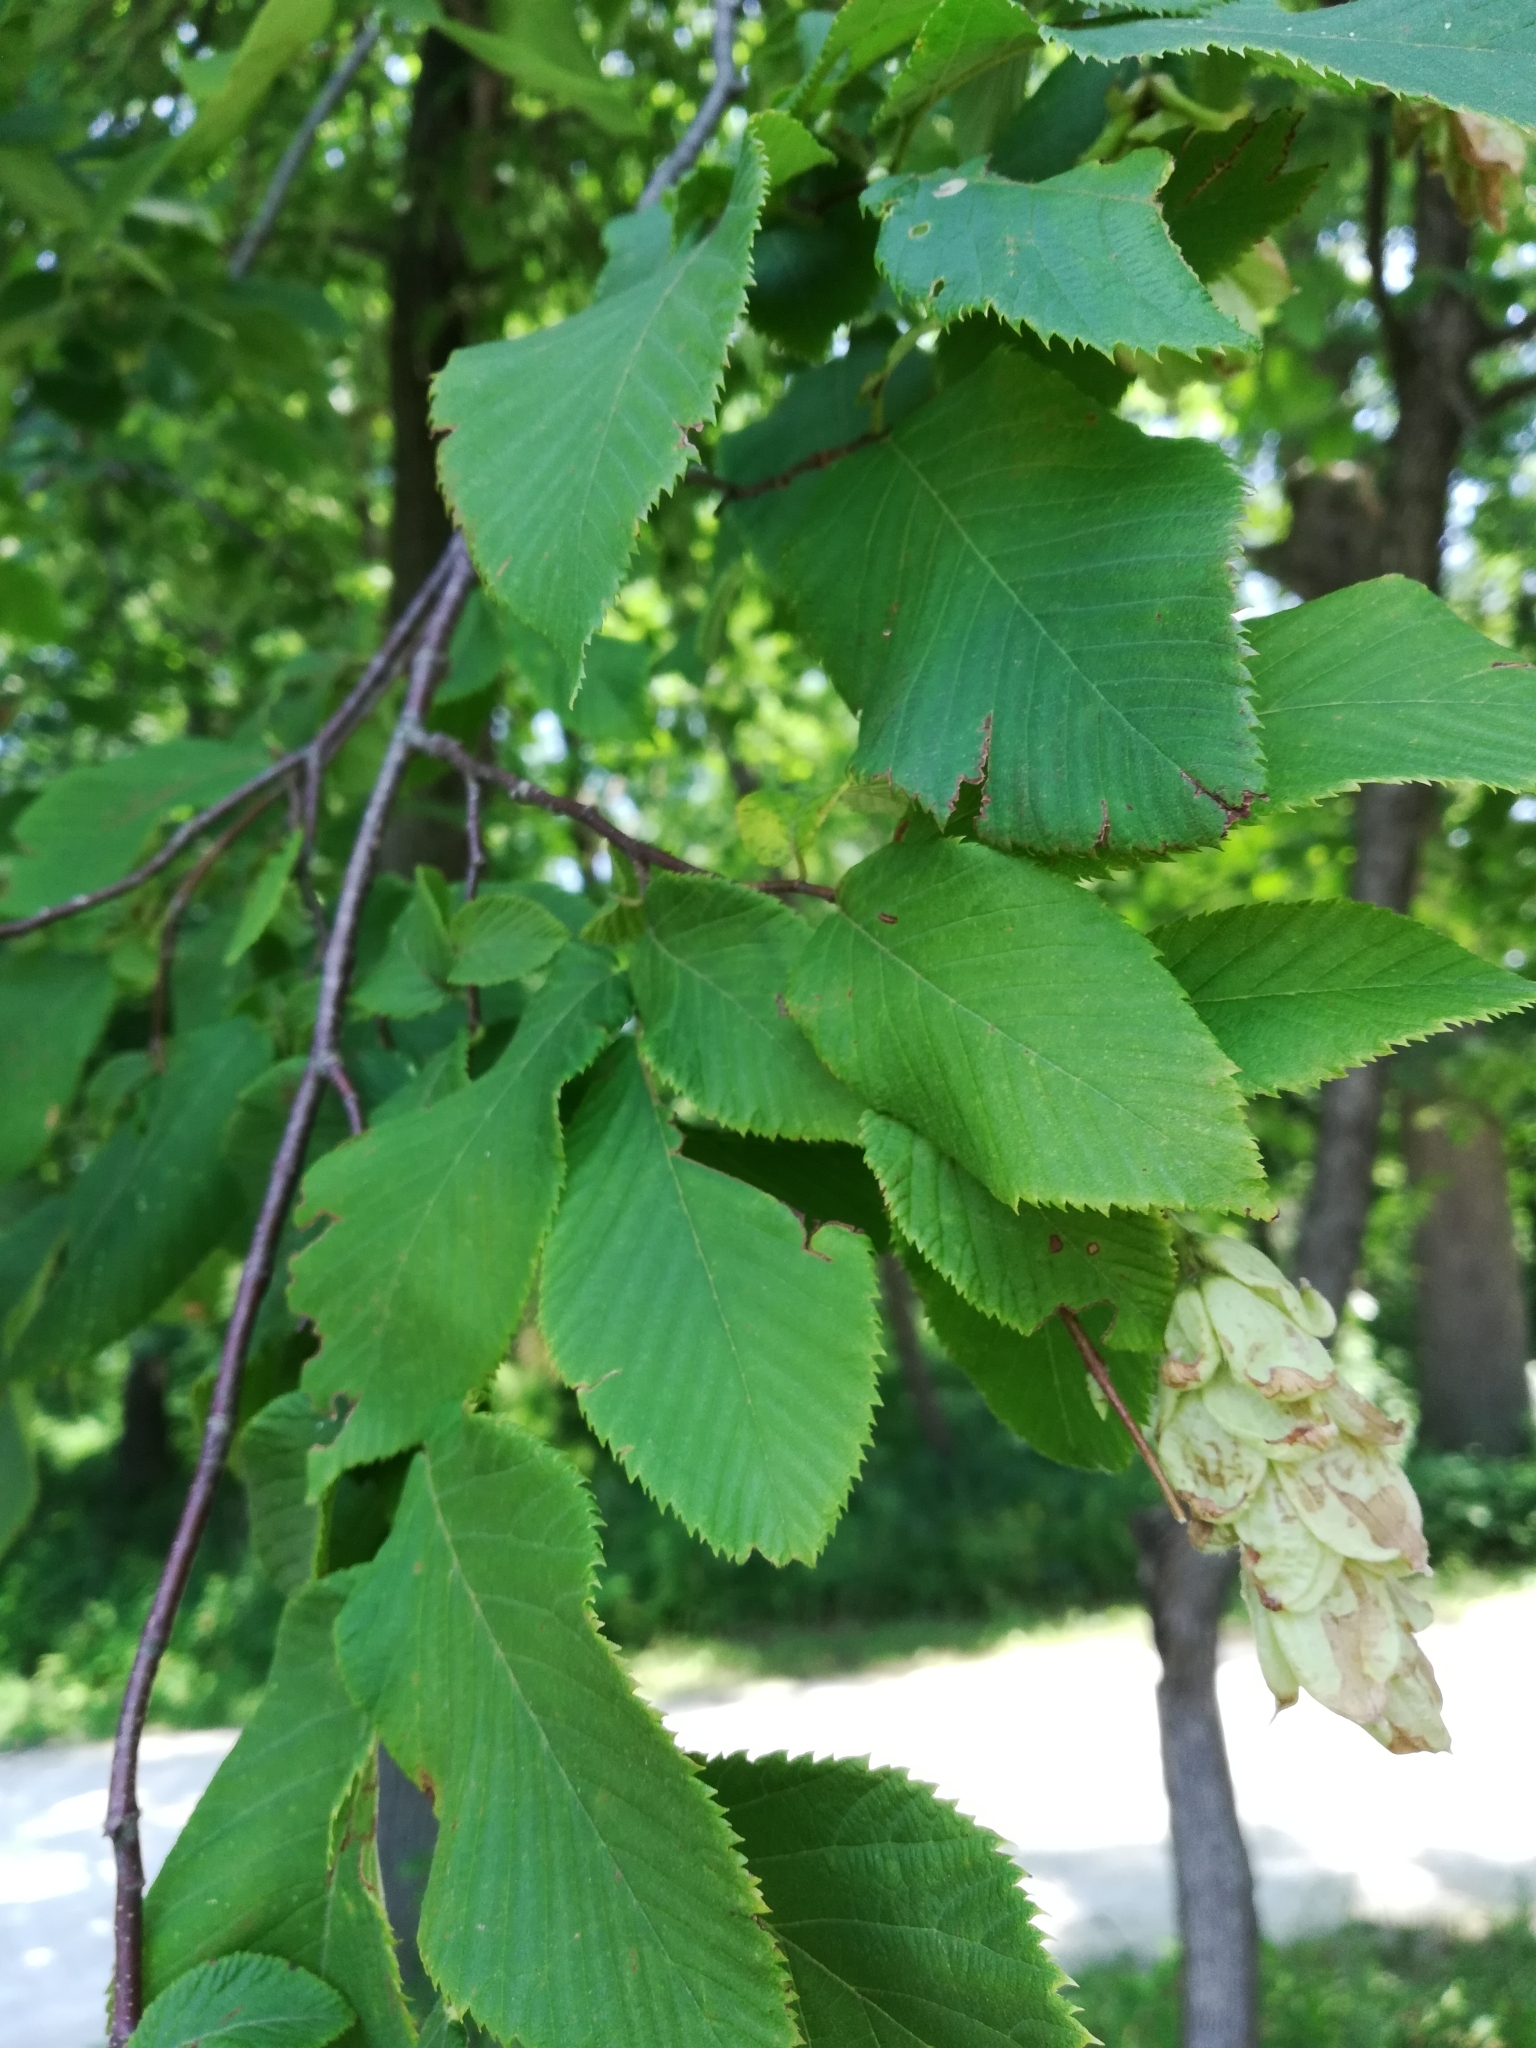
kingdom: Plantae
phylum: Tracheophyta
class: Magnoliopsida
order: Fagales
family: Betulaceae
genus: Ostrya
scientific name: Ostrya virginiana
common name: Ironwood
